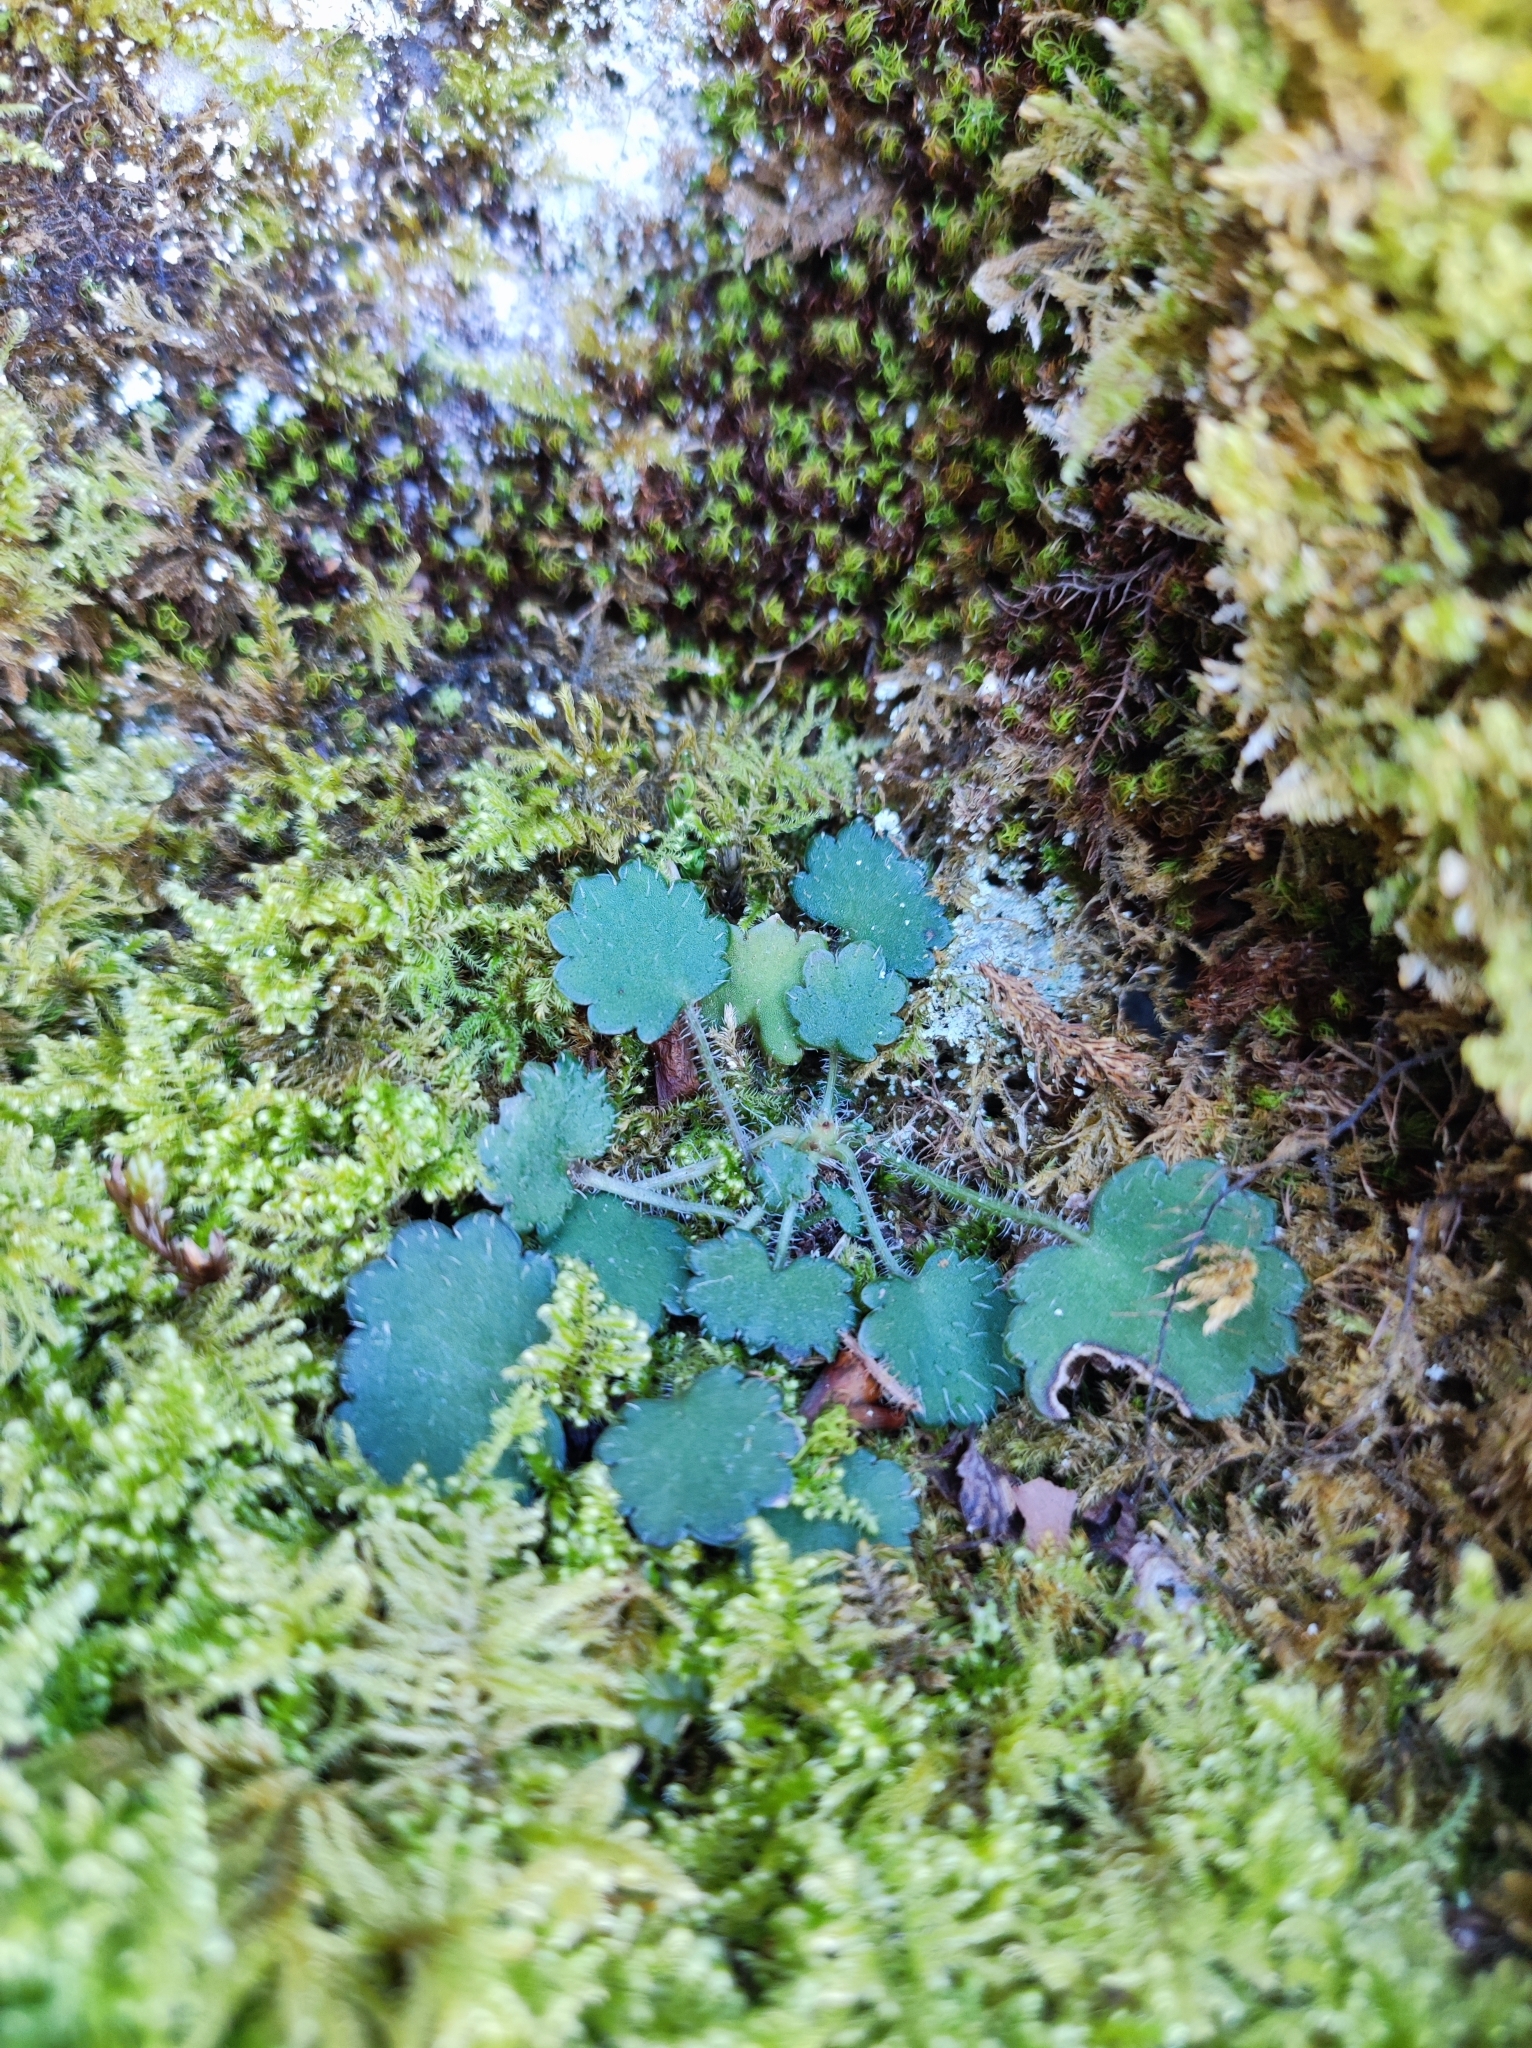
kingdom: Plantae
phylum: Tracheophyta
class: Magnoliopsida
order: Saxifragales
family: Saxifragaceae
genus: Saxifraga
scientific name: Saxifraga hirsuta
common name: Kidney saxifrage
